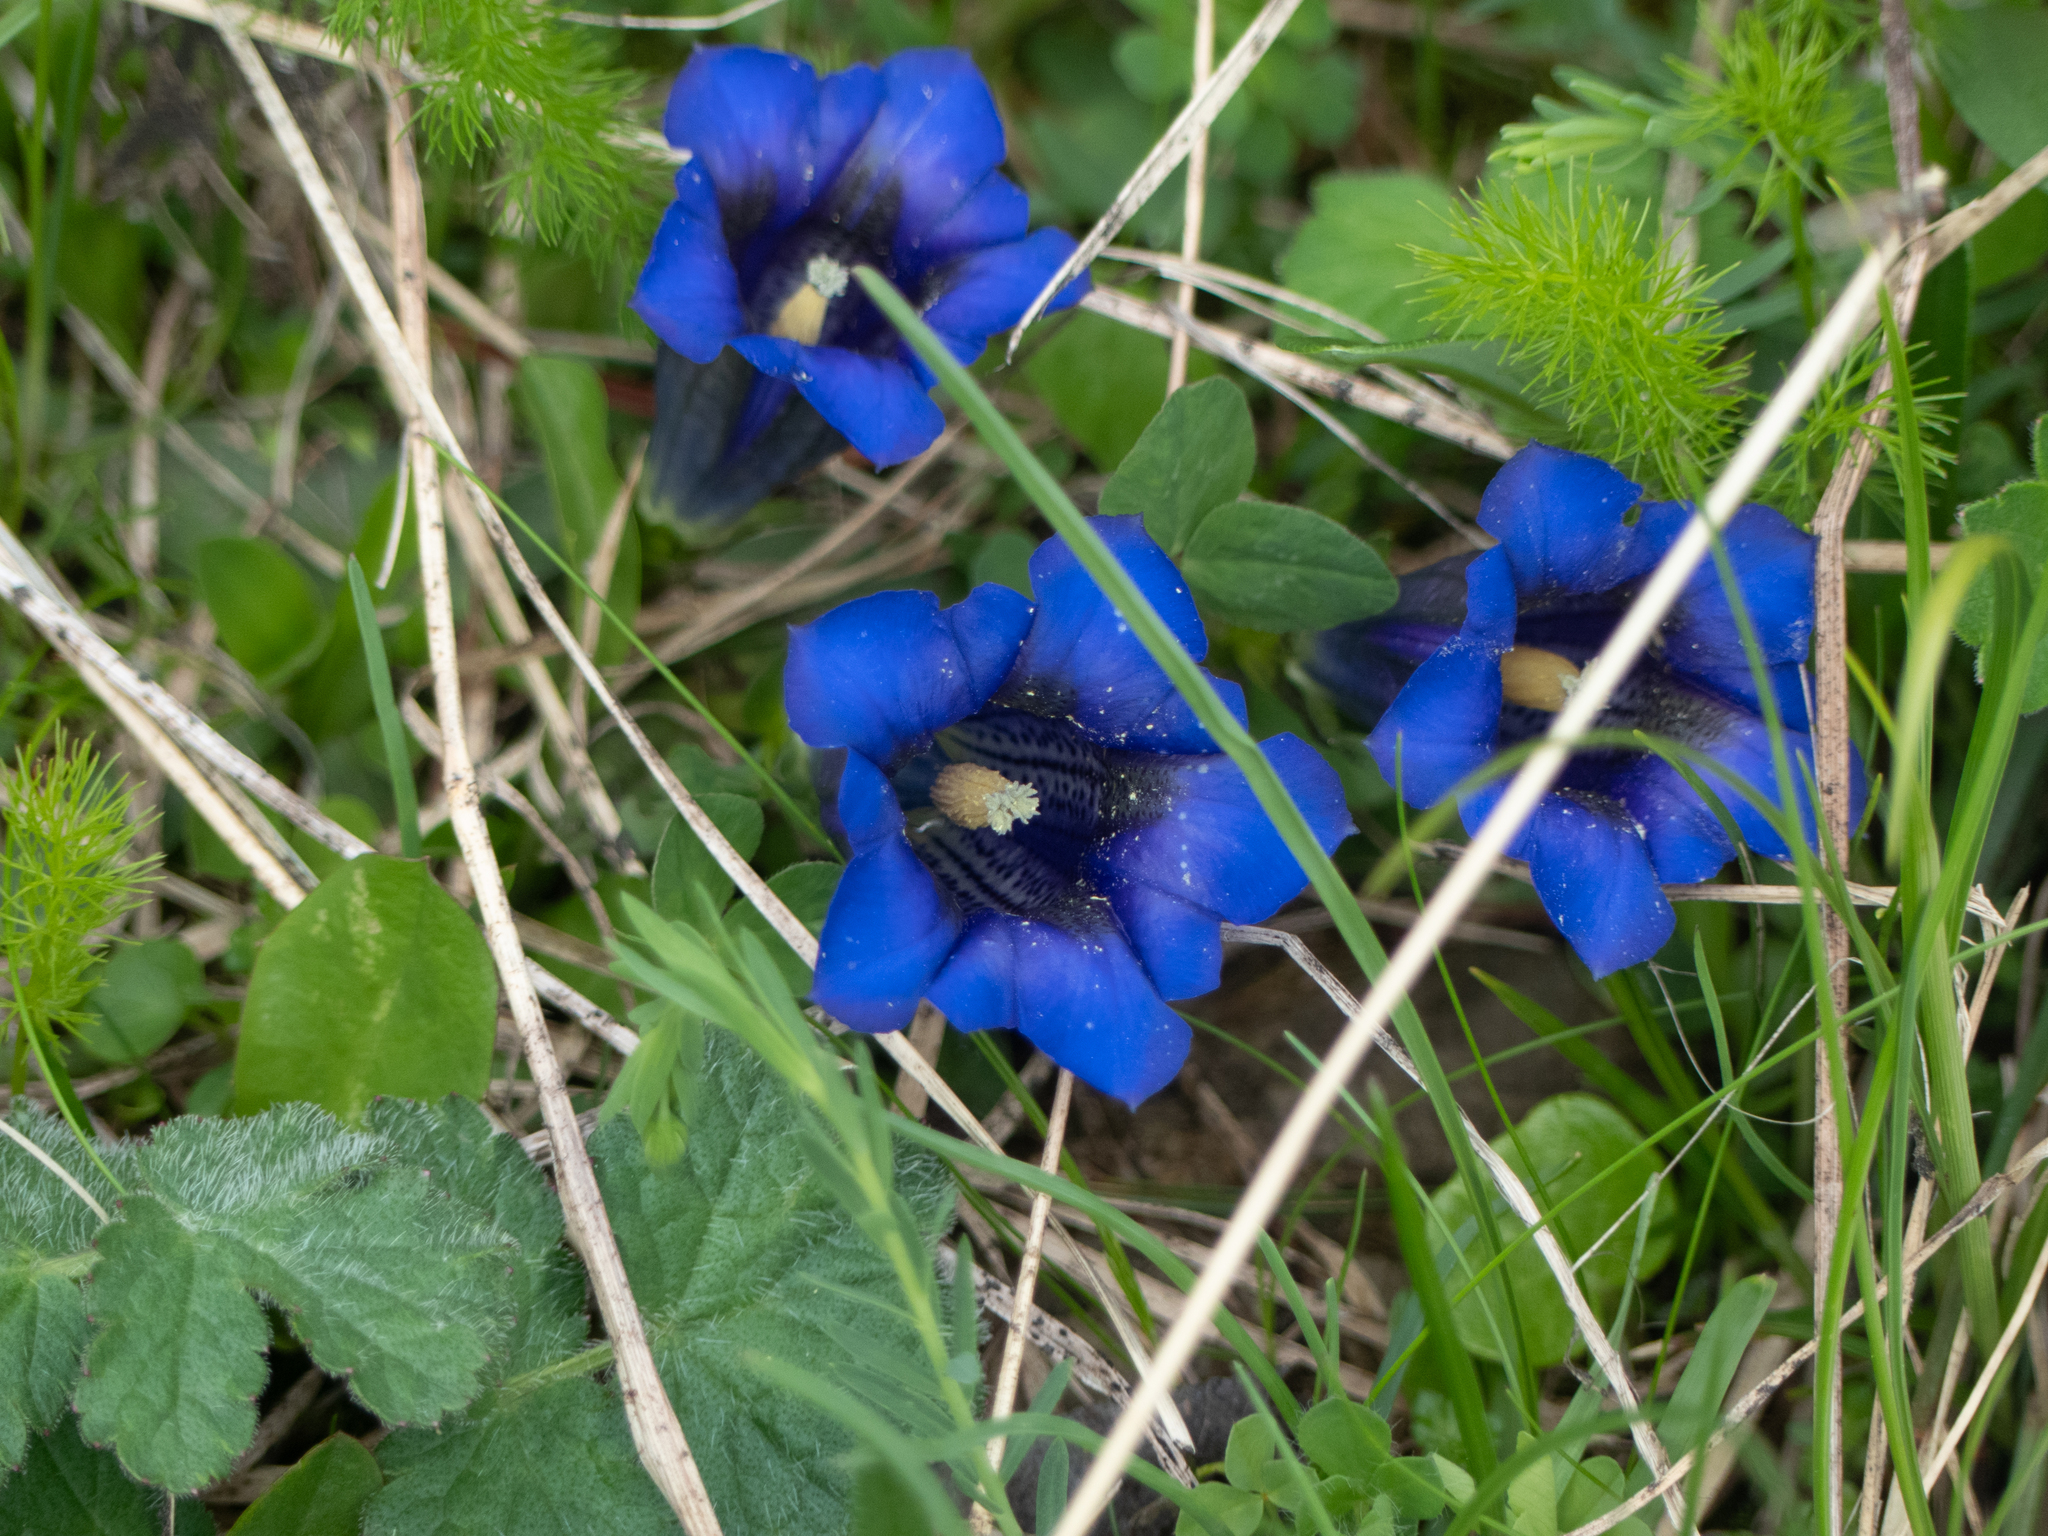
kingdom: Plantae
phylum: Tracheophyta
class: Magnoliopsida
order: Gentianales
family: Gentianaceae
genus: Gentiana
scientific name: Gentiana clusii
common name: Trumpet gentian
